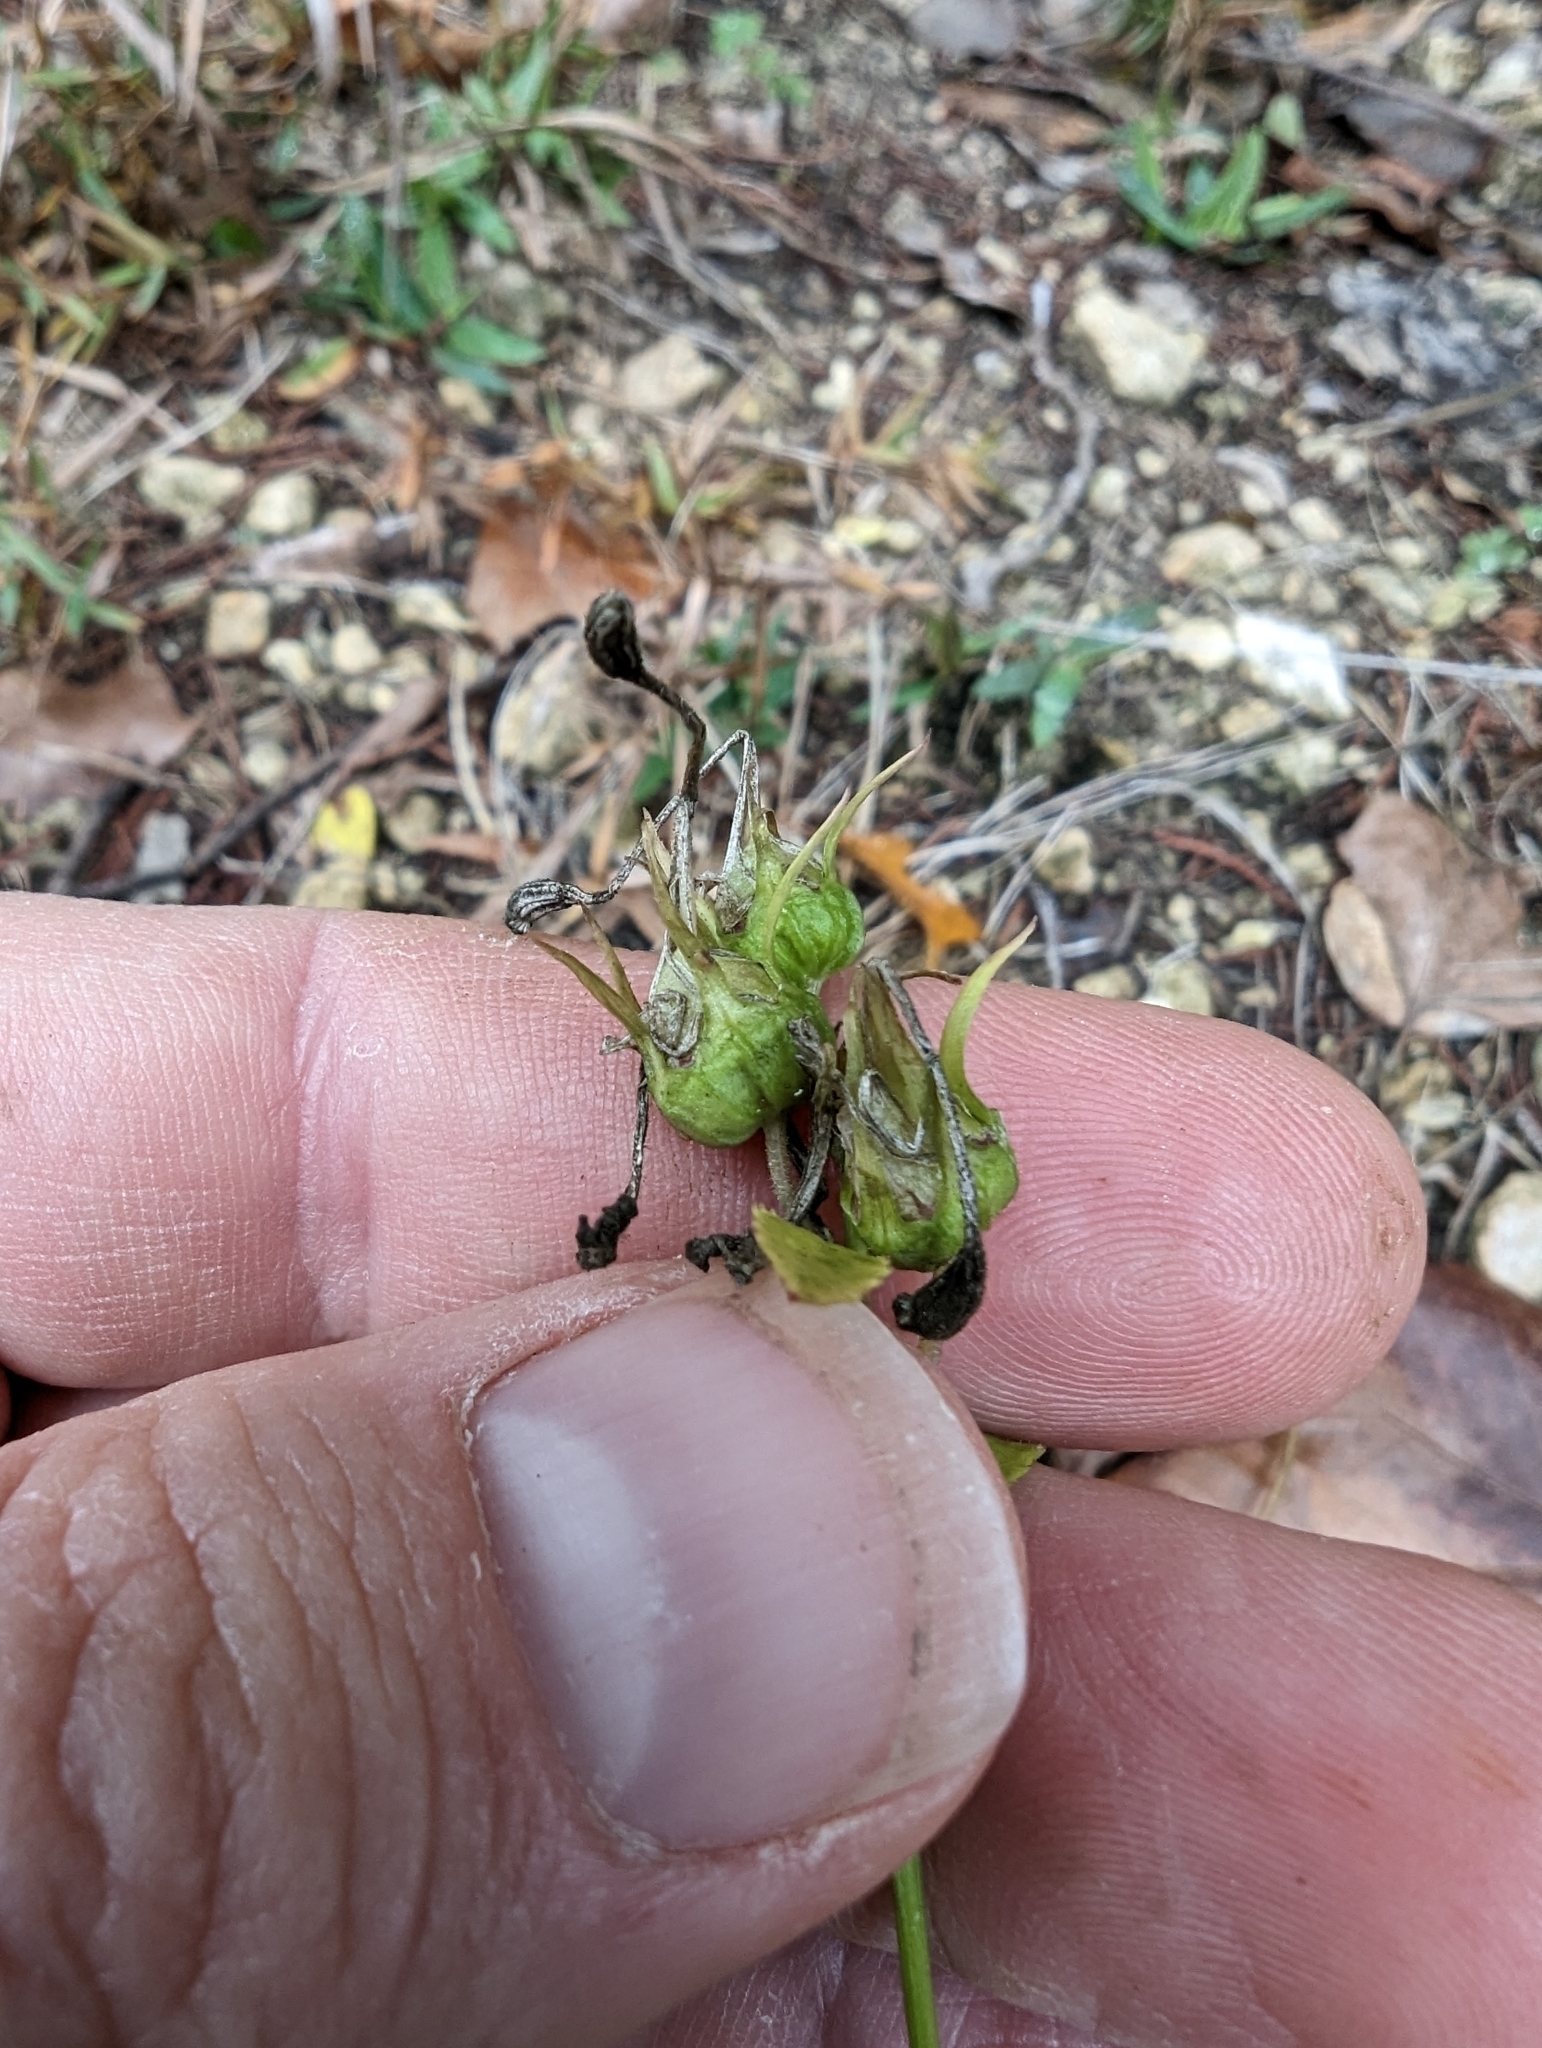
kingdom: Plantae
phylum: Tracheophyta
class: Magnoliopsida
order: Asterales
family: Campanulaceae
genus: Lobelia
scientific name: Lobelia cardinalis
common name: Cardinal flower
